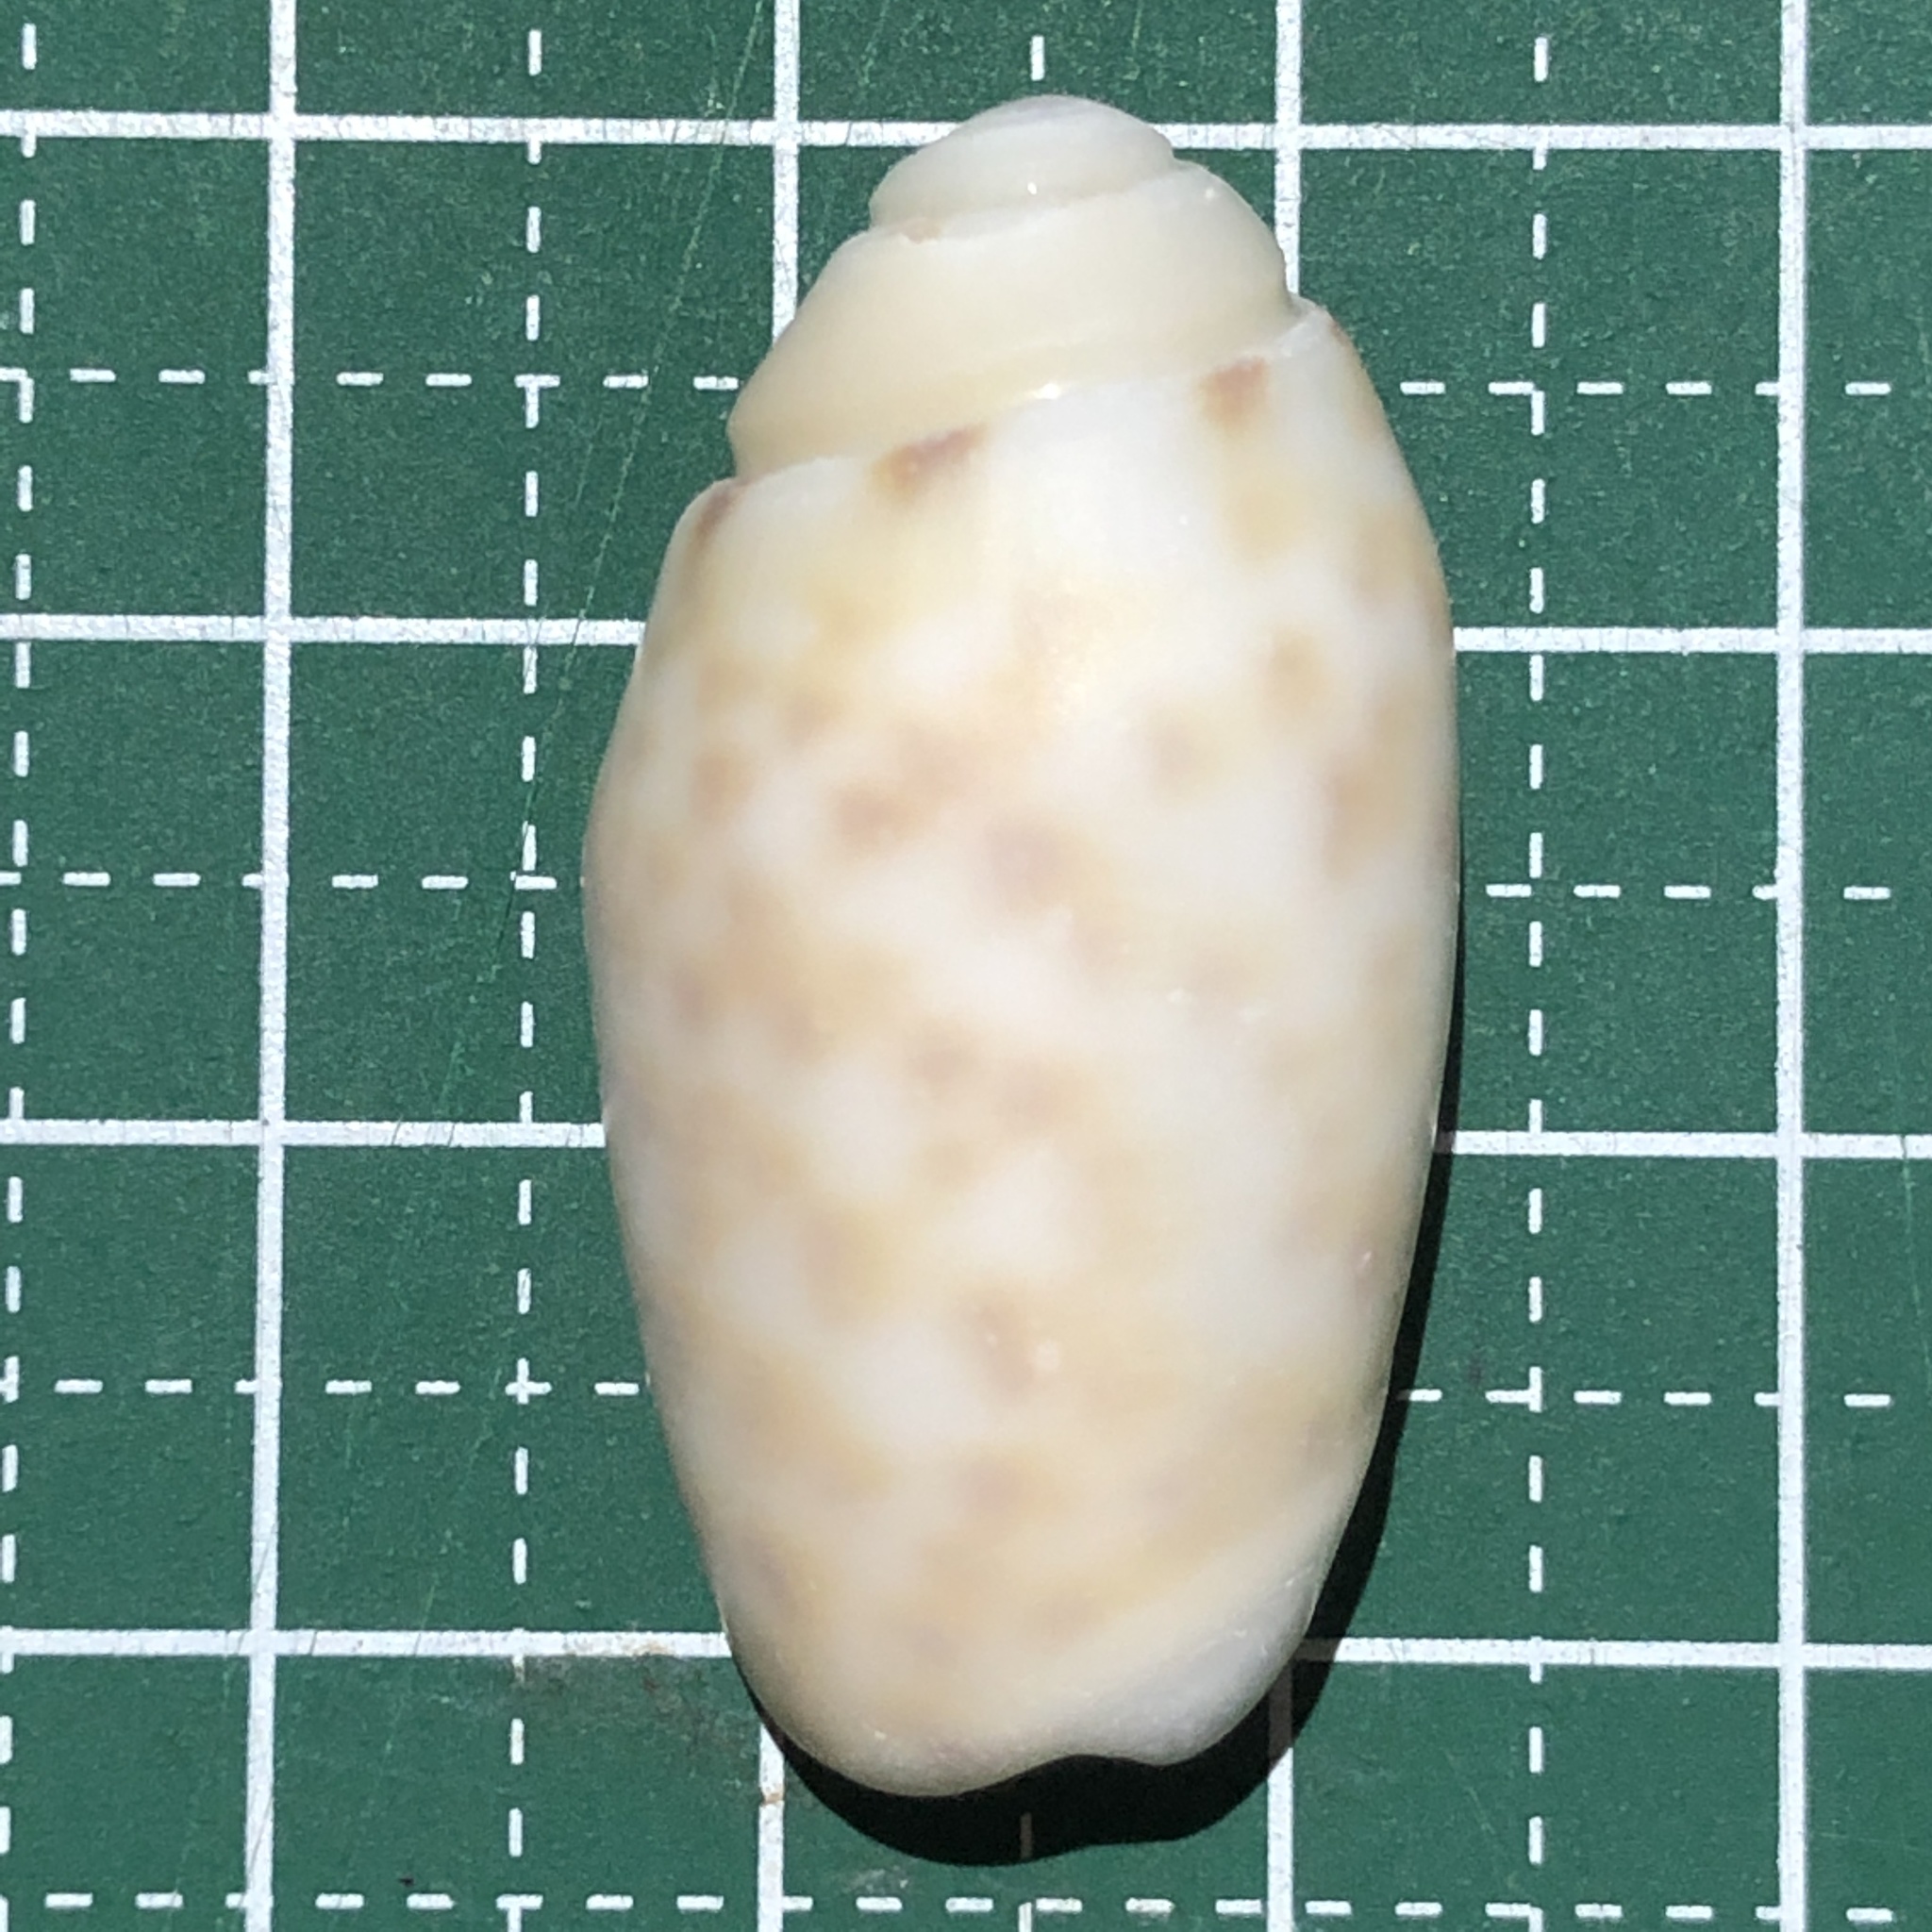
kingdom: Animalia
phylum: Mollusca
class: Gastropoda
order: Neogastropoda
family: Olividae
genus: Oliva
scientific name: Oliva amethystina
